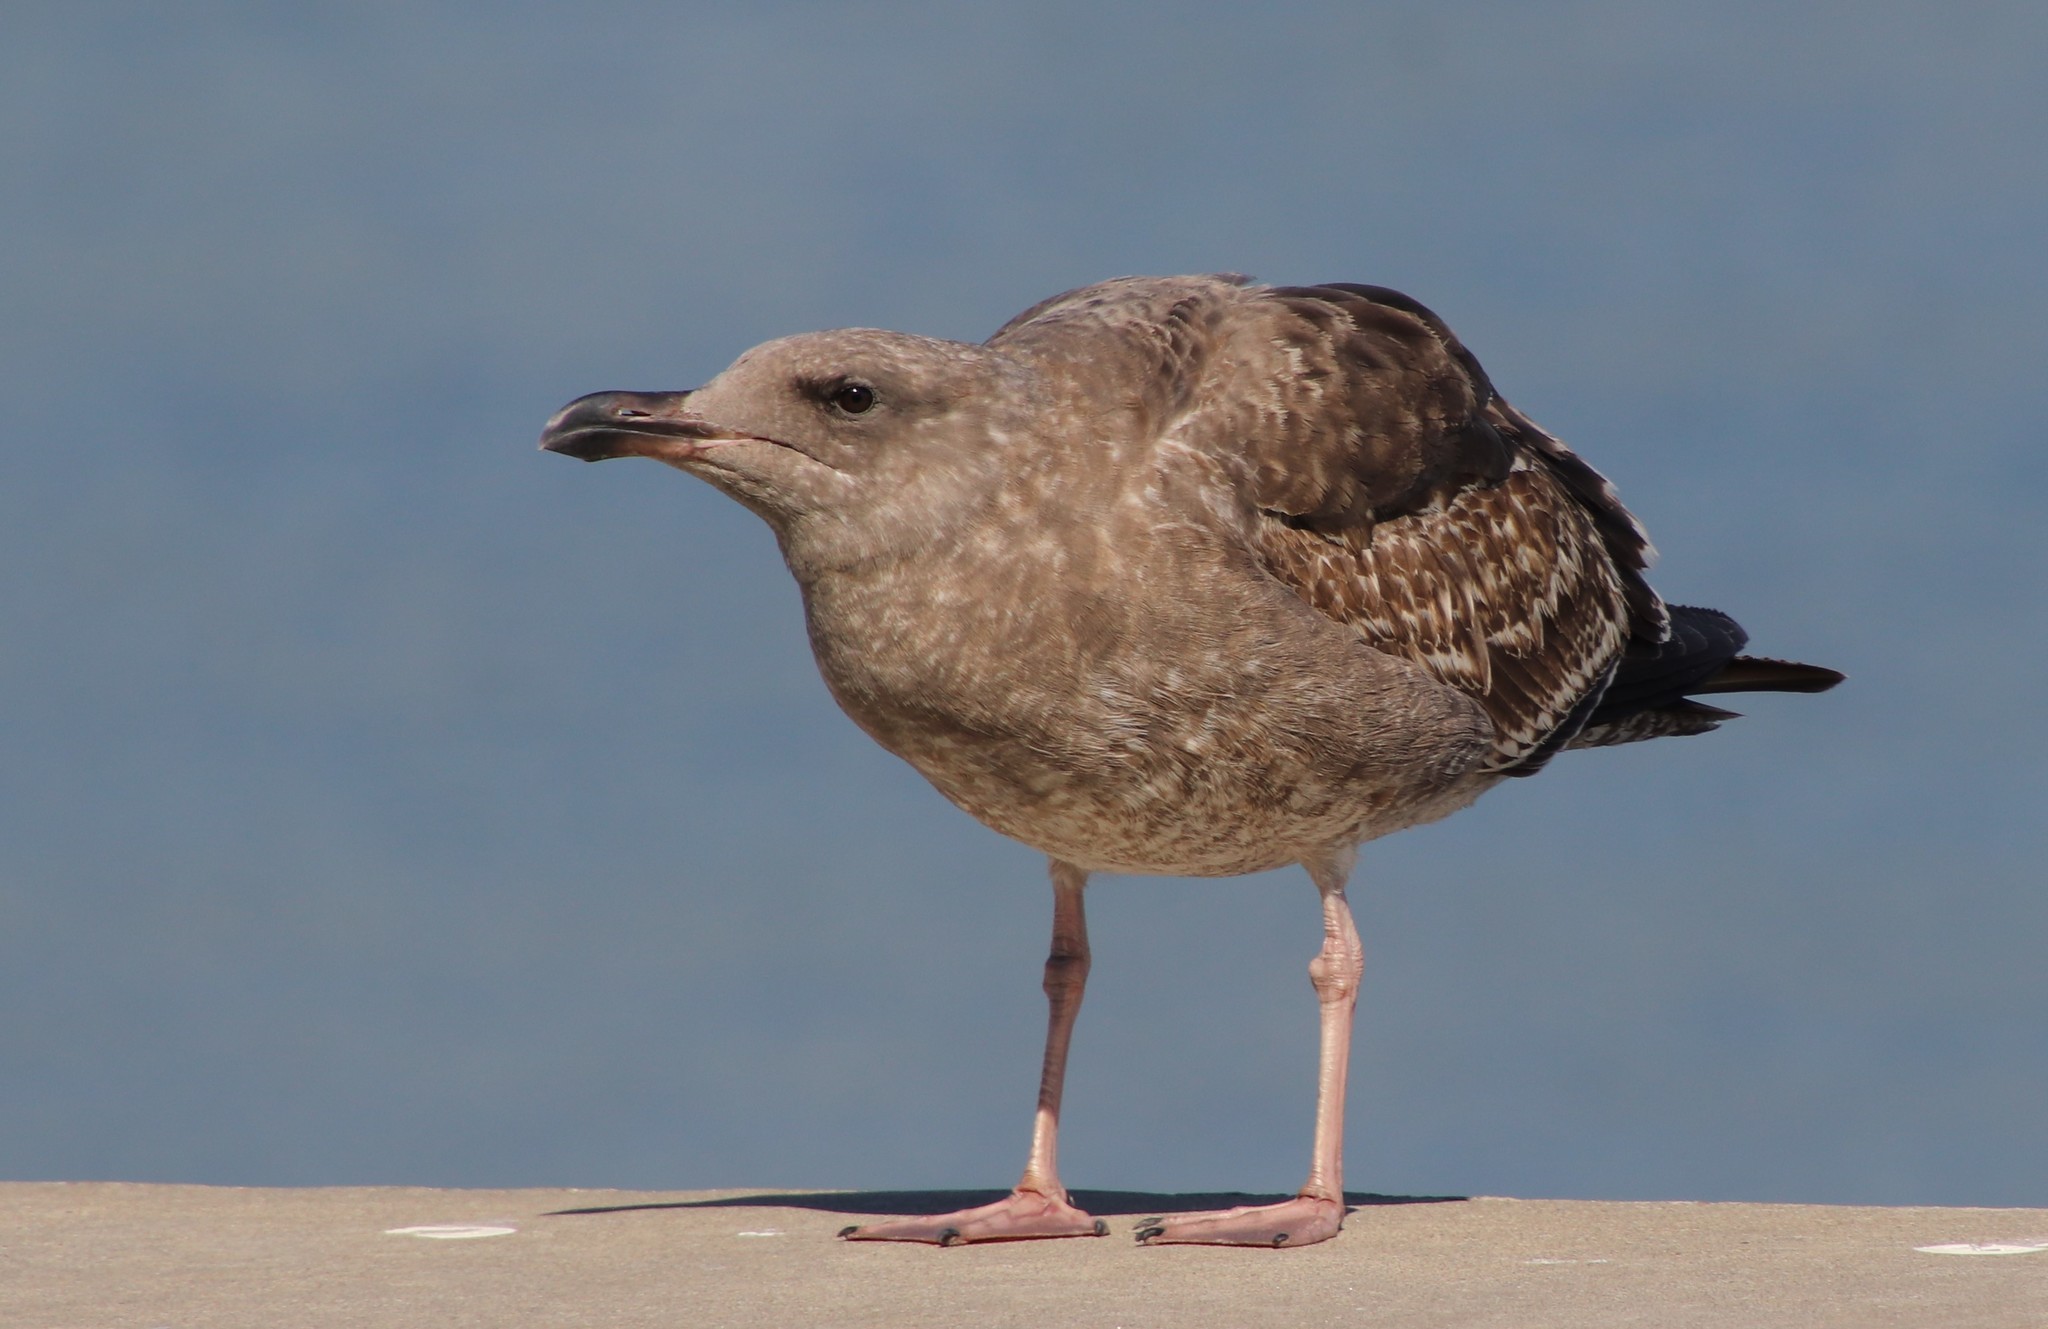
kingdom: Animalia
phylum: Chordata
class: Aves
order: Charadriiformes
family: Laridae
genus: Larus
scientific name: Larus occidentalis
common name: Western gull
